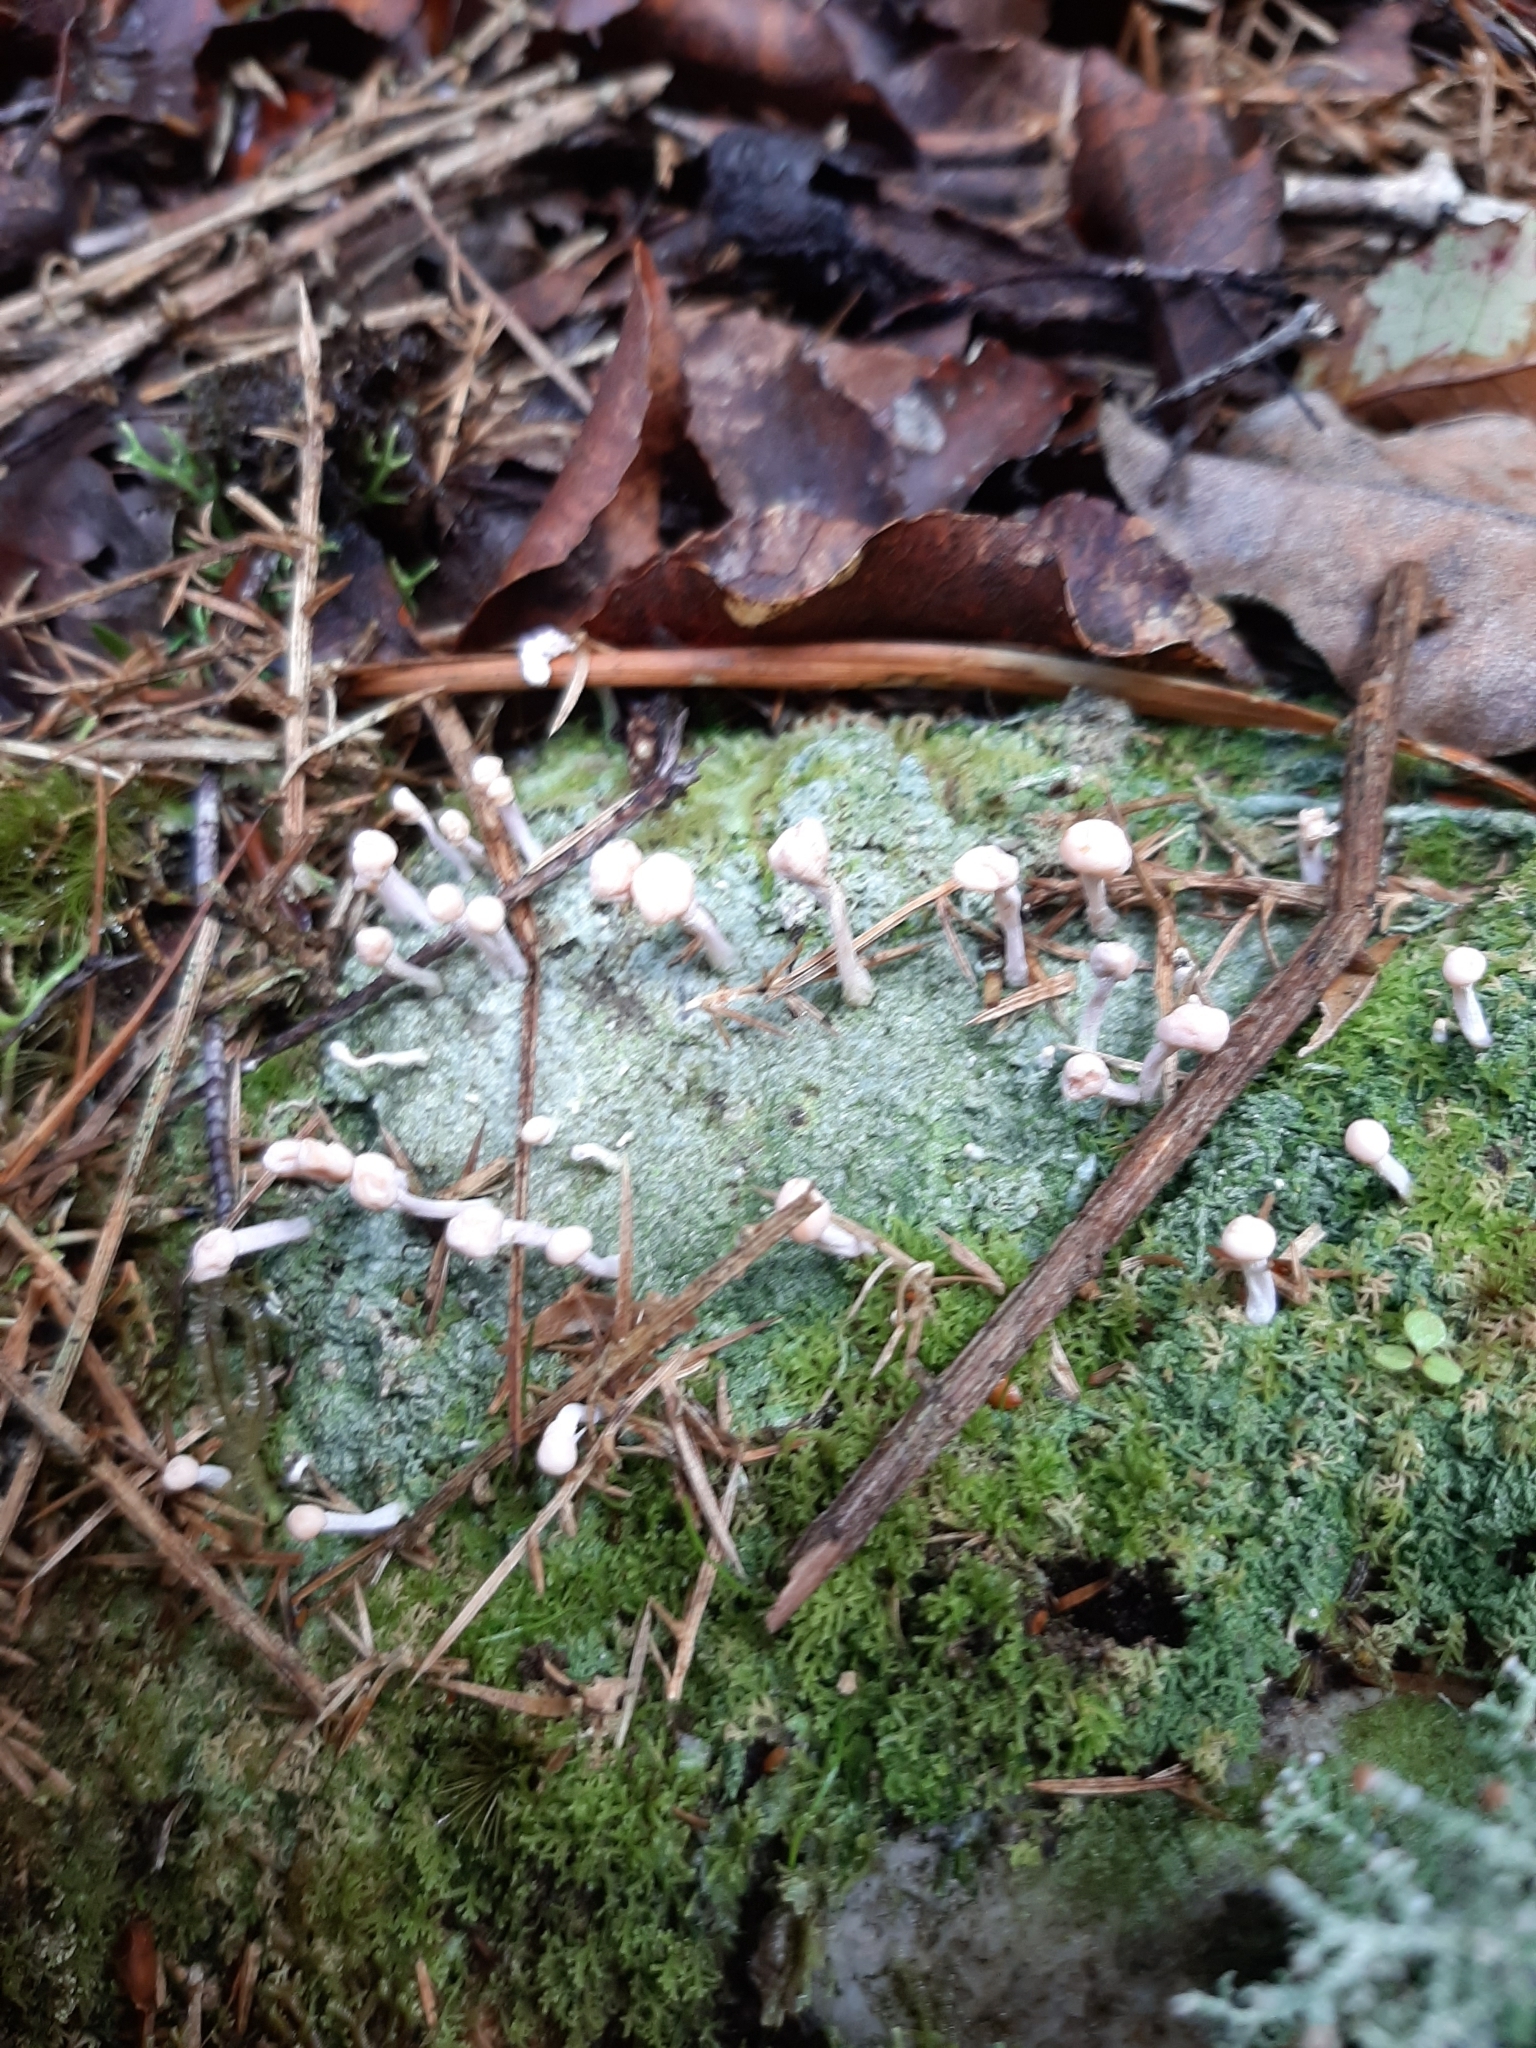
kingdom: Fungi
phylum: Ascomycota
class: Lecanoromycetes
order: Pertusariales
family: Icmadophilaceae
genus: Dibaeis
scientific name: Dibaeis arcuata
